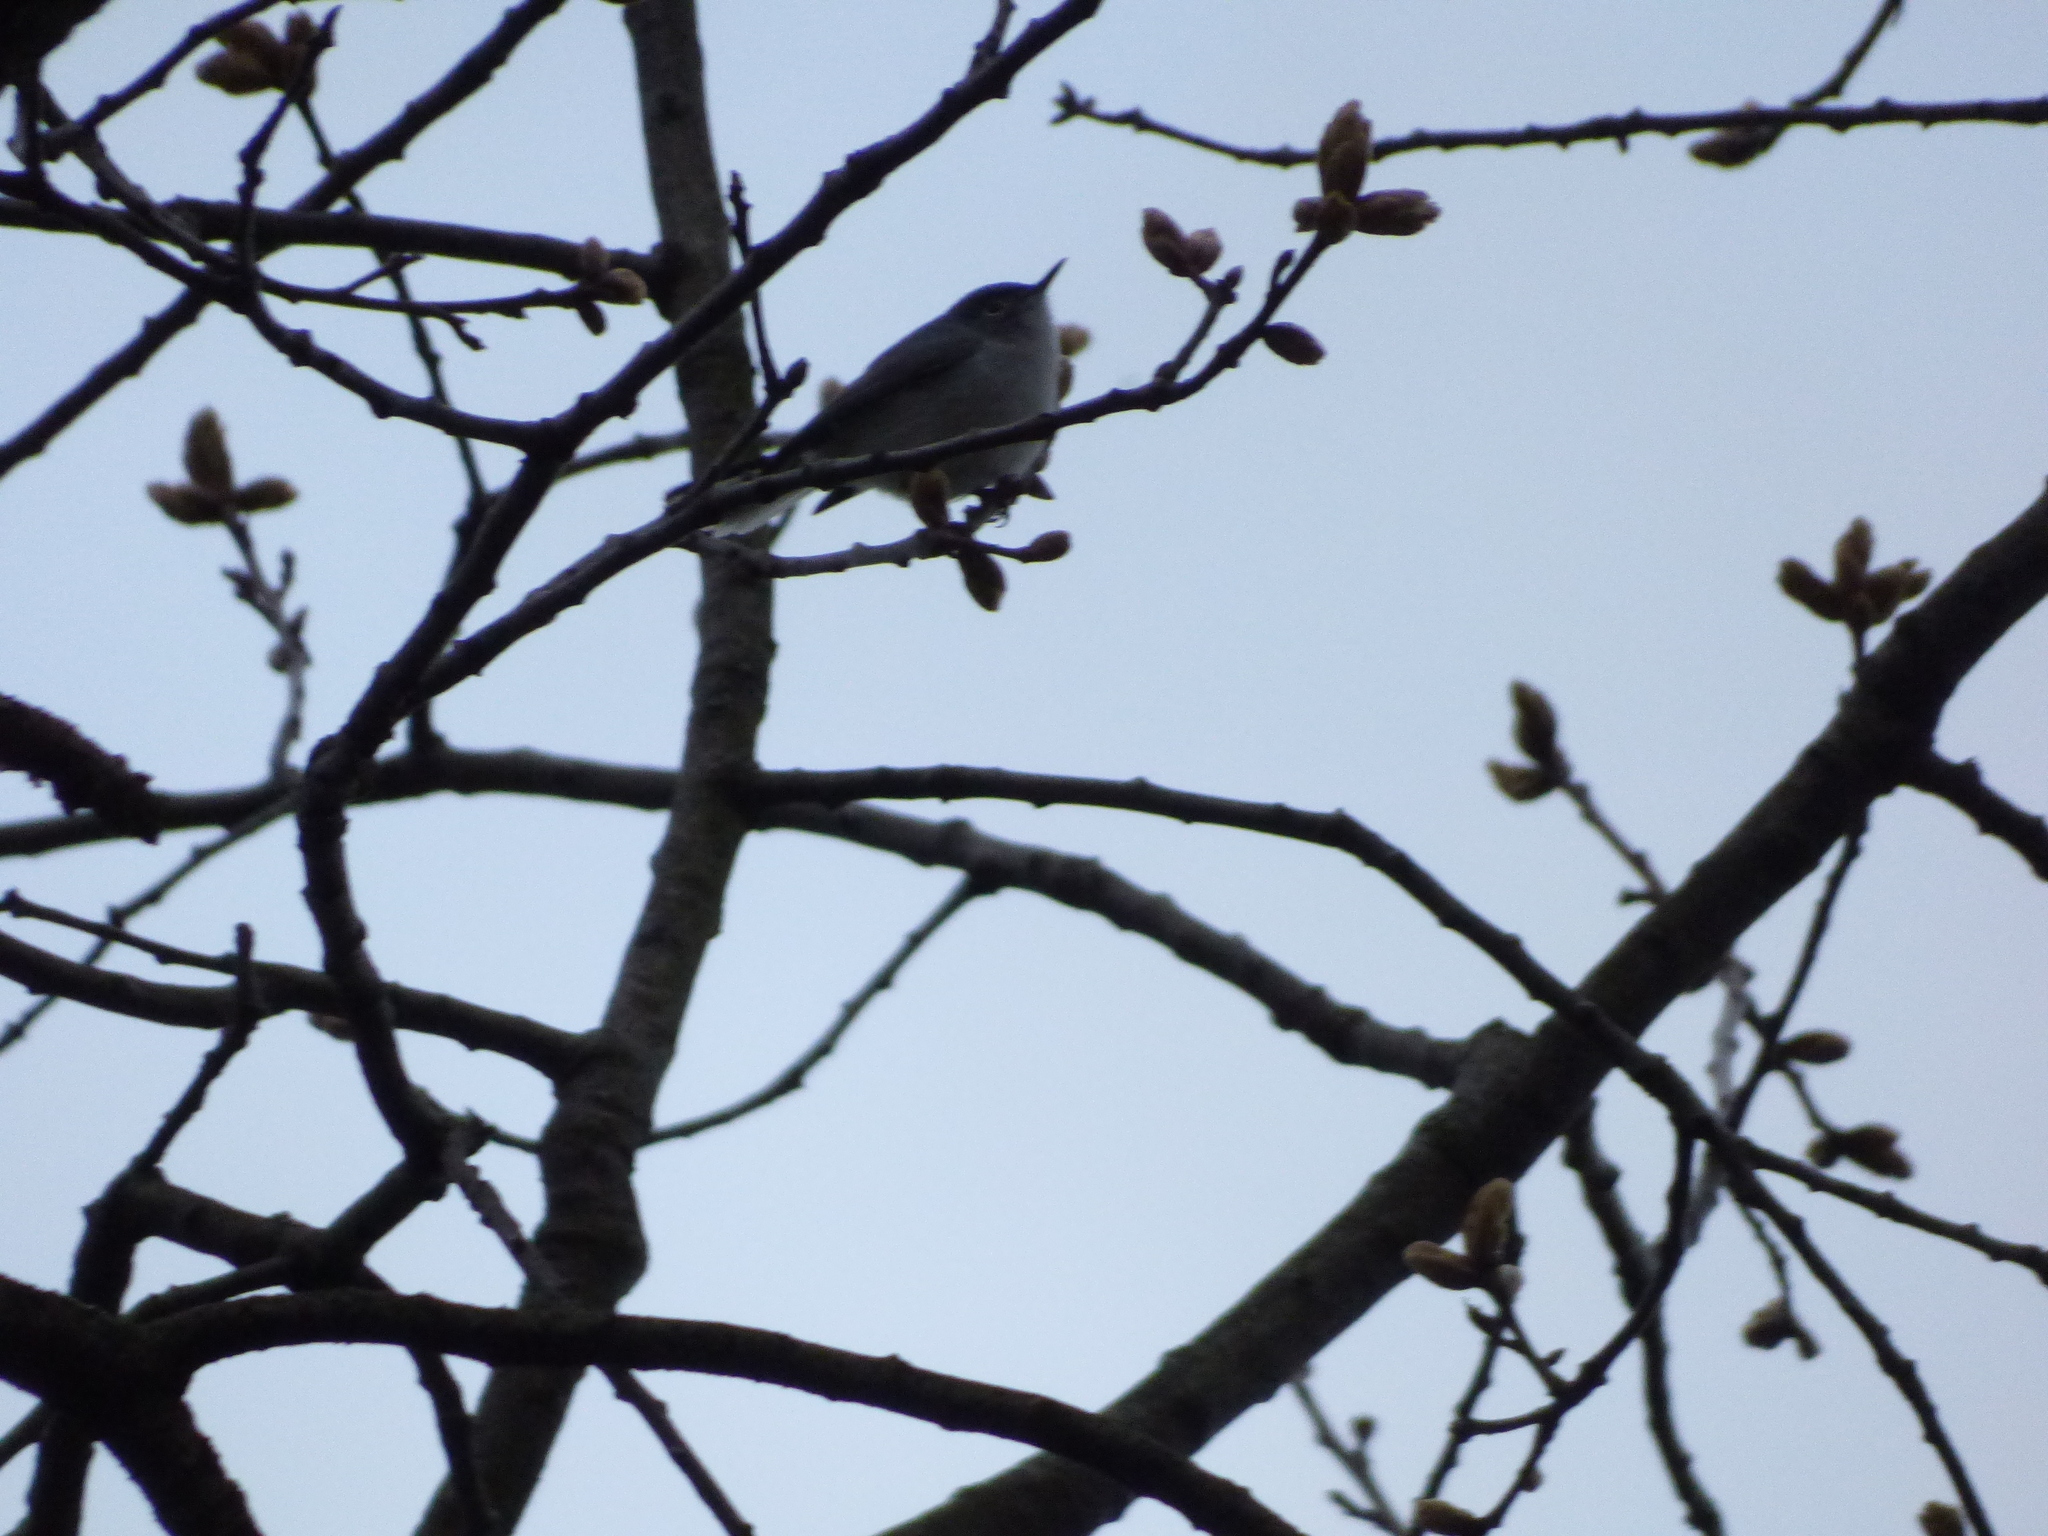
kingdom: Animalia
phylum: Chordata
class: Aves
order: Passeriformes
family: Polioptilidae
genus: Polioptila
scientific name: Polioptila caerulea
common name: Blue-gray gnatcatcher
